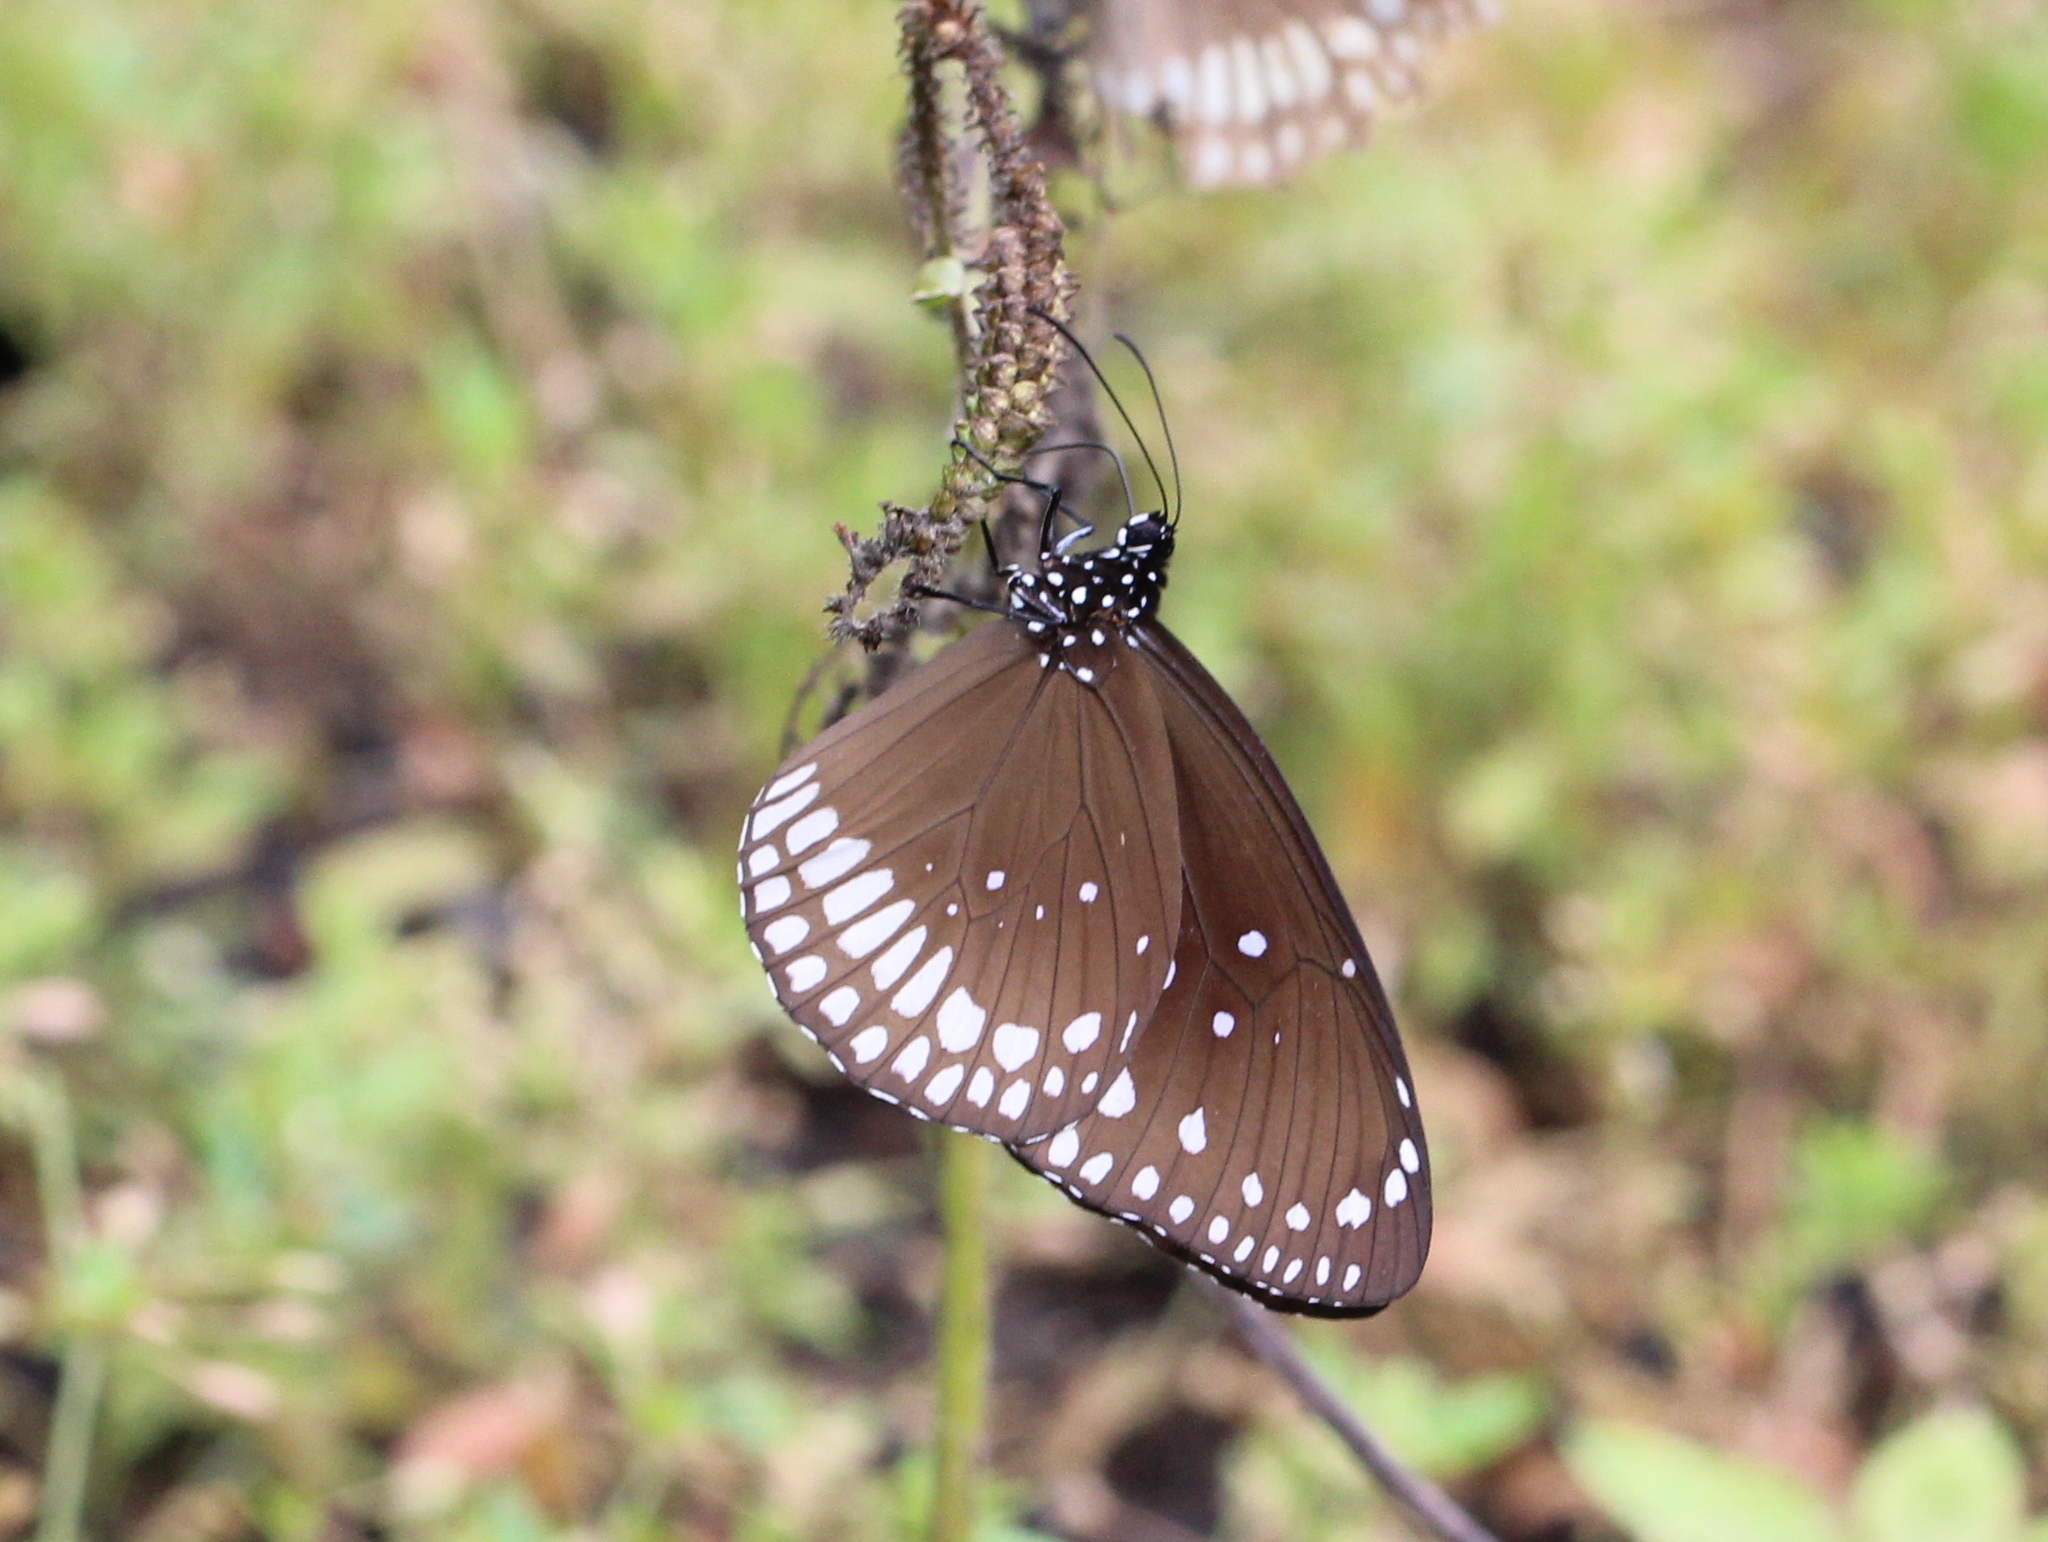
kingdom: Animalia
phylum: Arthropoda
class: Insecta
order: Lepidoptera
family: Nymphalidae
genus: Euploea
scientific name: Euploea core
